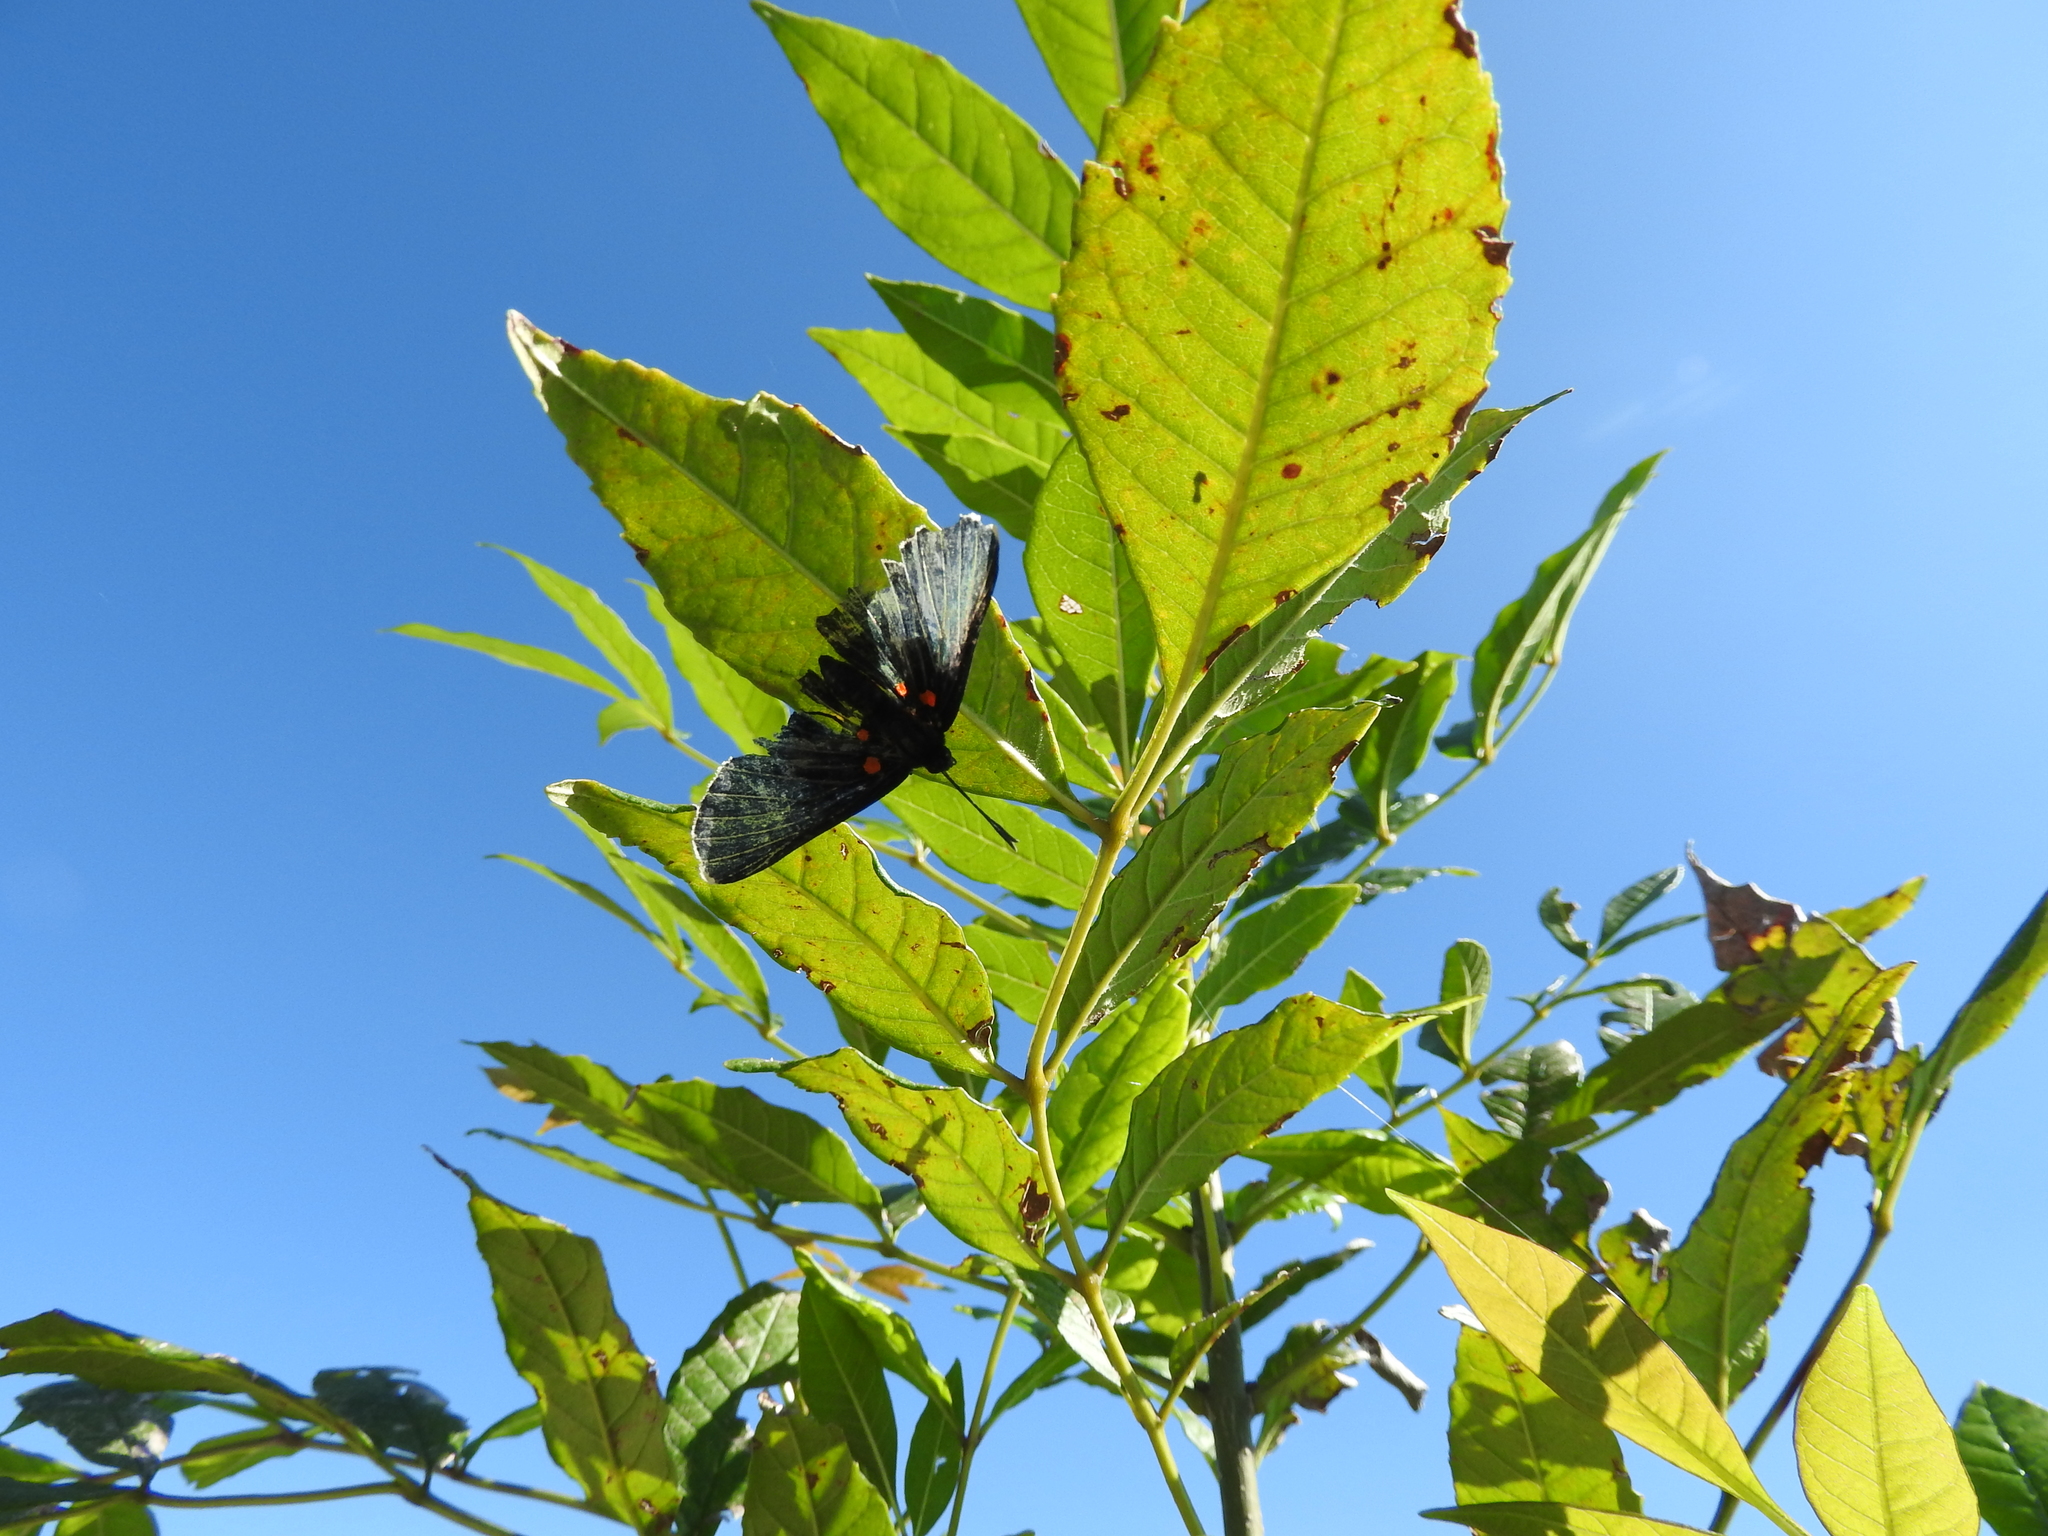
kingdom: Animalia
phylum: Arthropoda
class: Insecta
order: Lepidoptera
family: Lycaenidae
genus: Melanis
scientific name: Melanis
